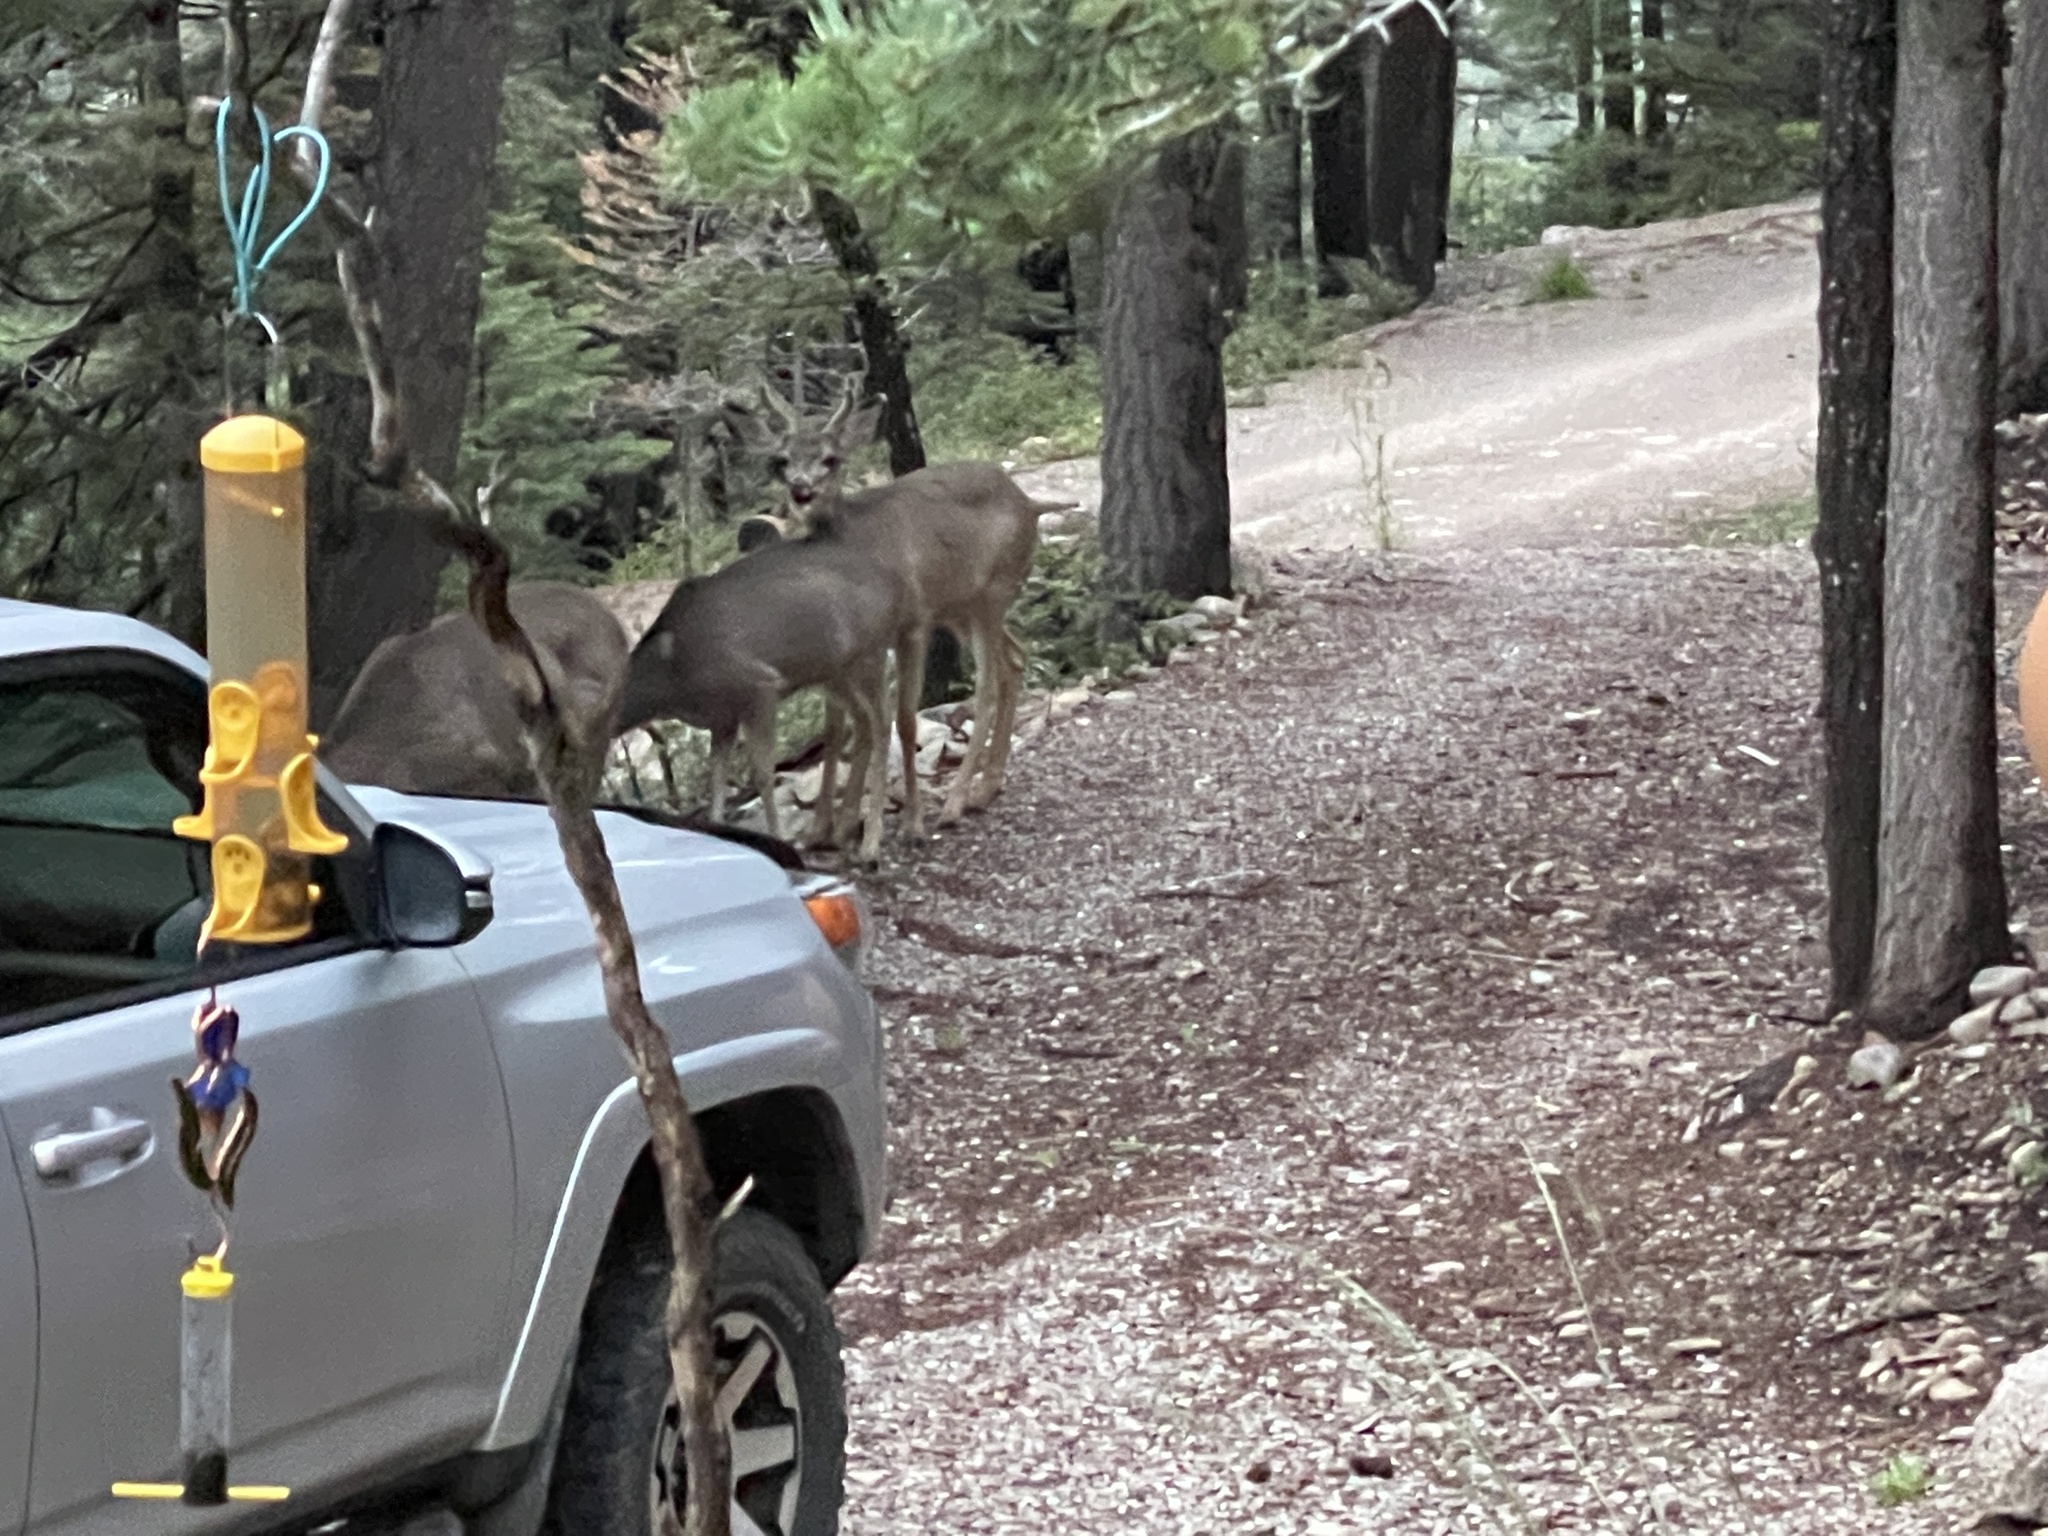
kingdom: Animalia
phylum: Chordata
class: Mammalia
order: Artiodactyla
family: Cervidae
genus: Odocoileus
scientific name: Odocoileus hemionus
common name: Mule deer
